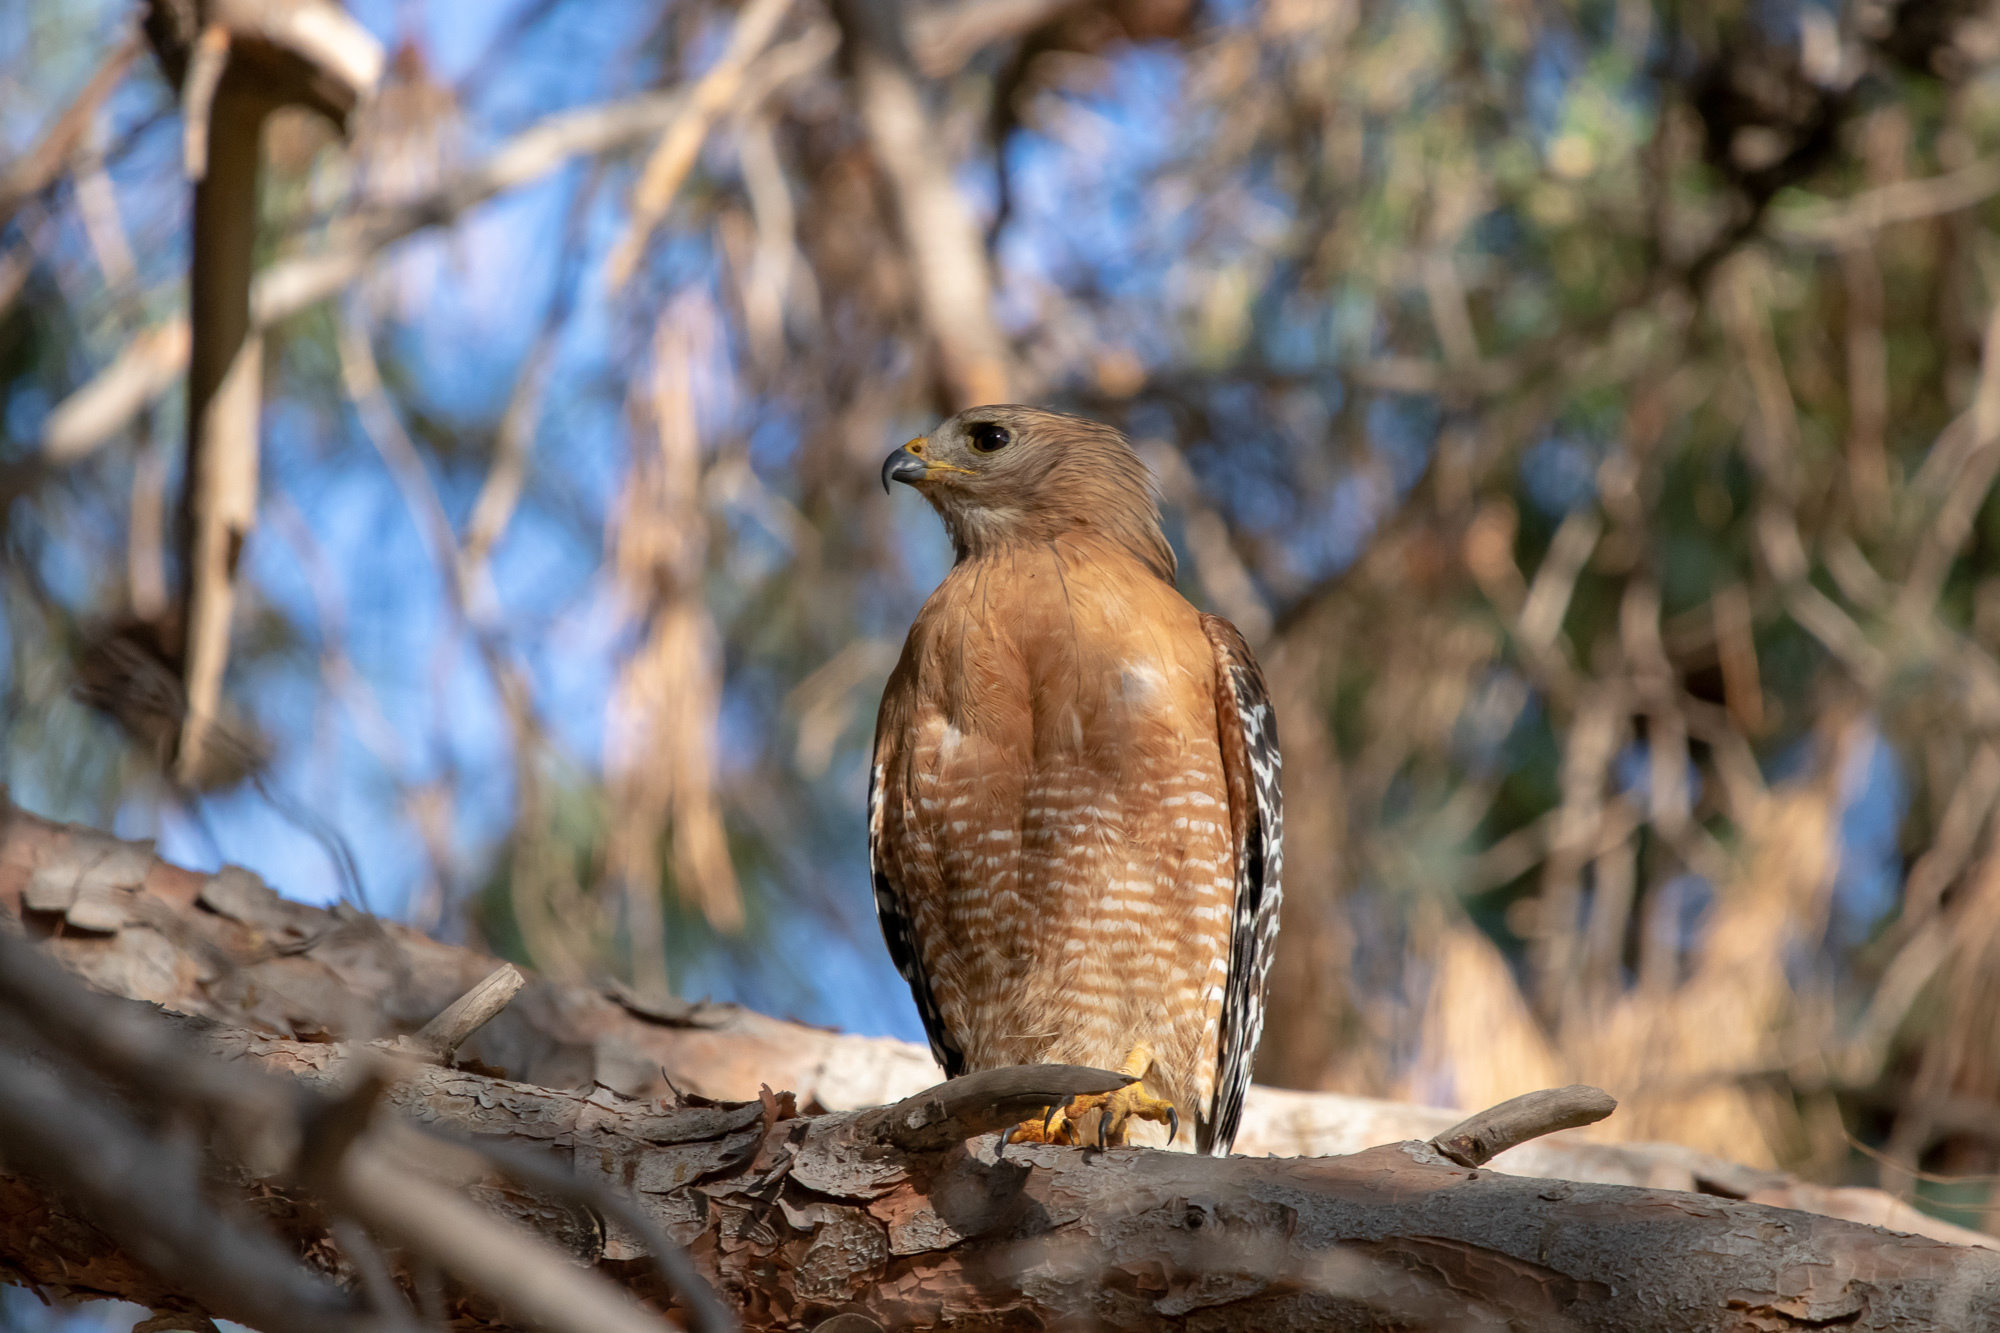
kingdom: Animalia
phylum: Chordata
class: Aves
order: Accipitriformes
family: Accipitridae
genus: Buteo
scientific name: Buteo lineatus
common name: Red-shouldered hawk
